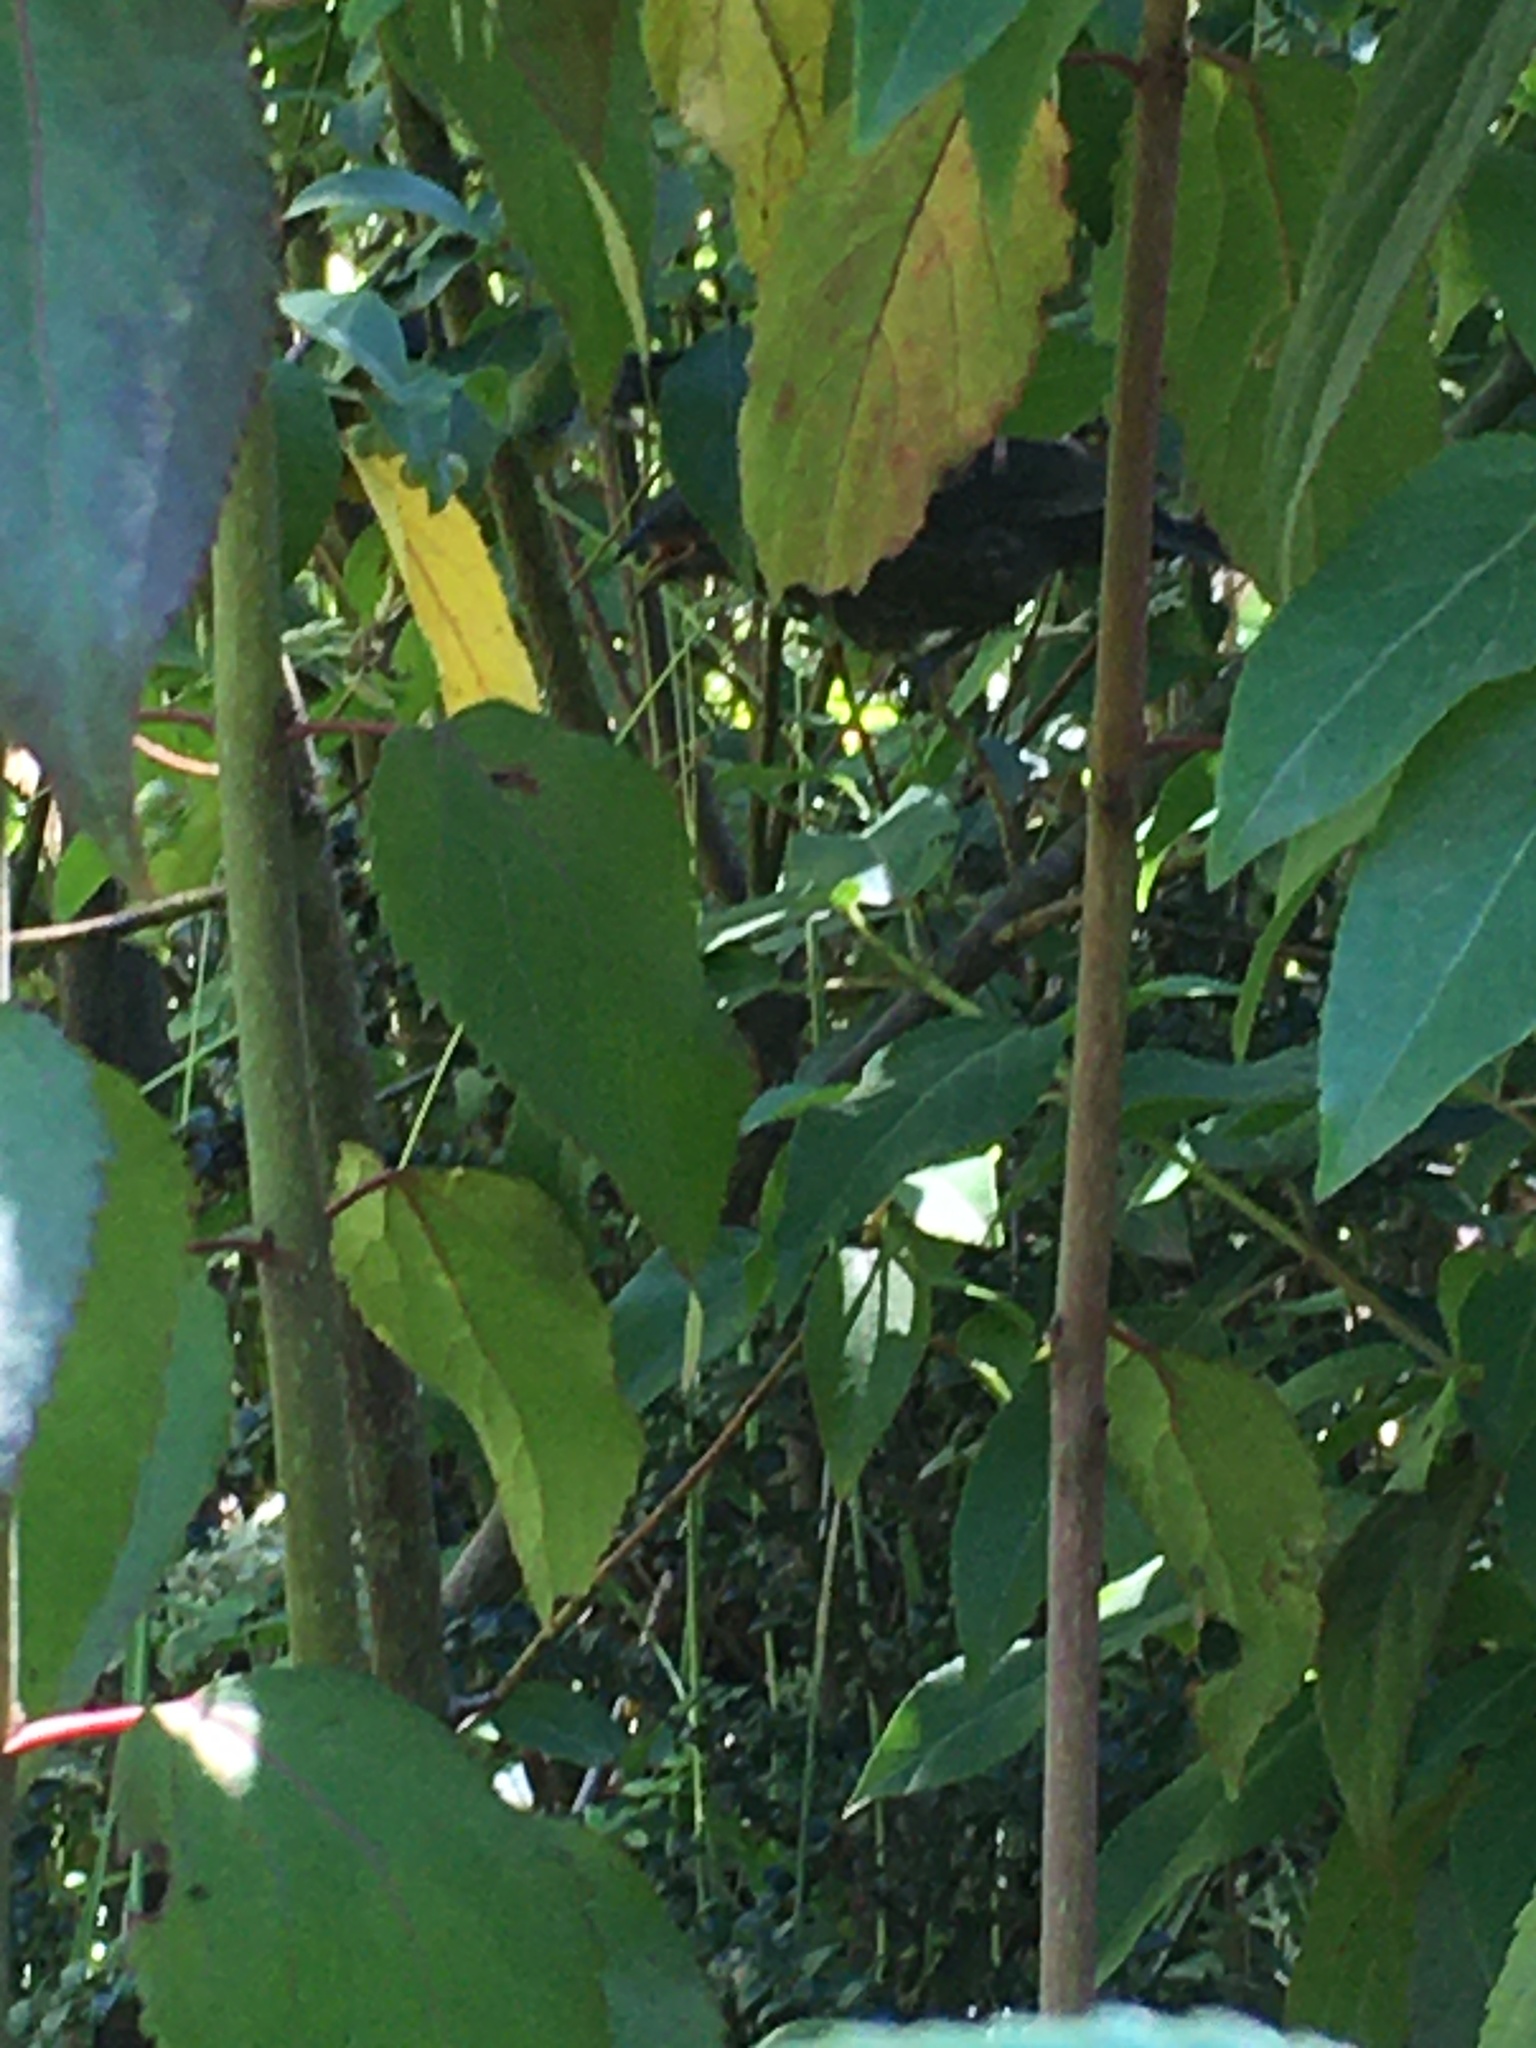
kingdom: Animalia
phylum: Chordata
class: Aves
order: Passeriformes
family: Icteridae
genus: Molothrus
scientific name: Molothrus bonariensis
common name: Shiny cowbird
